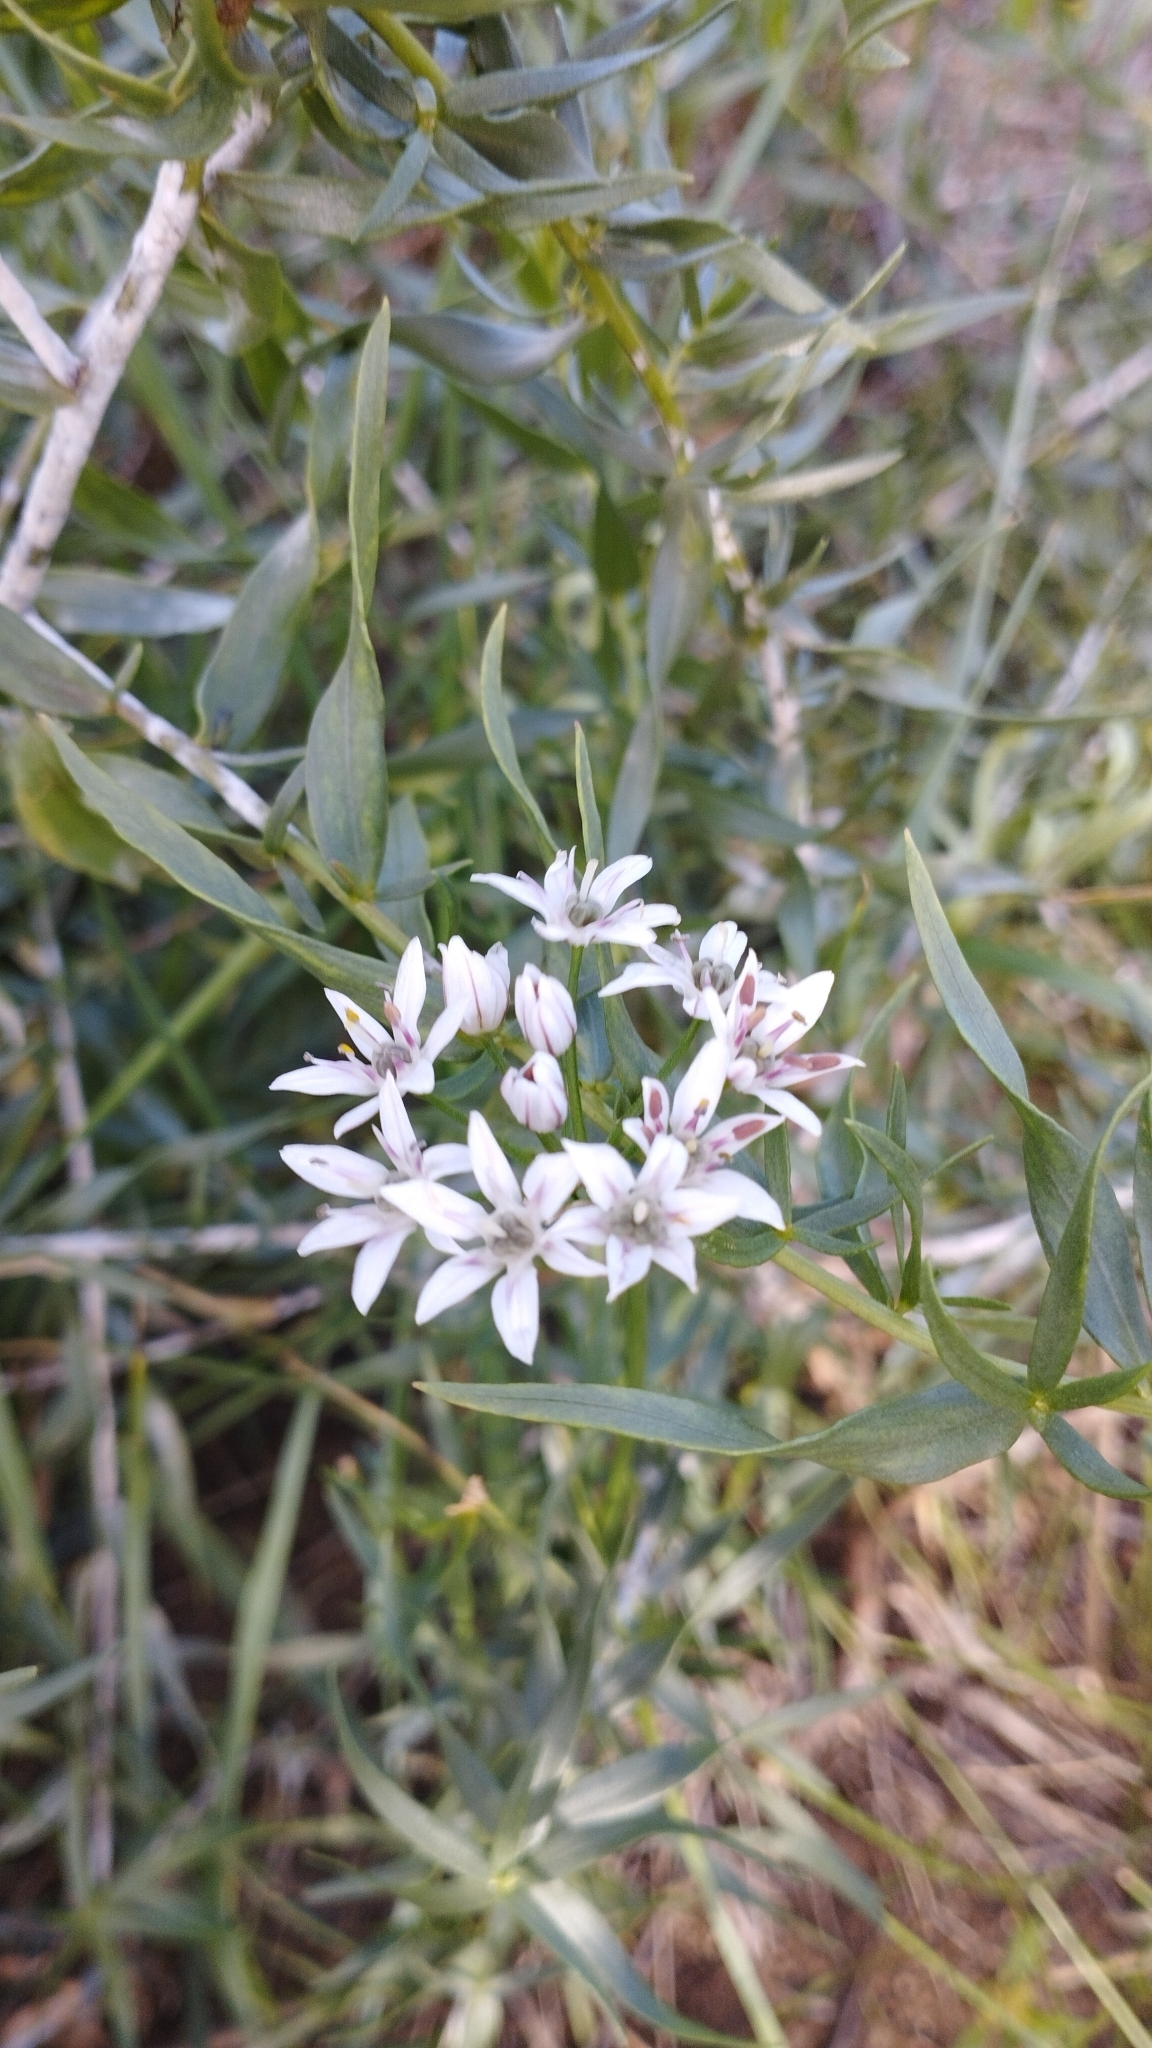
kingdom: Plantae
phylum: Tracheophyta
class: Liliopsida
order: Asparagales
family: Amaryllidaceae
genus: Allium
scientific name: Allium ramosum
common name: Fragrant garlic
